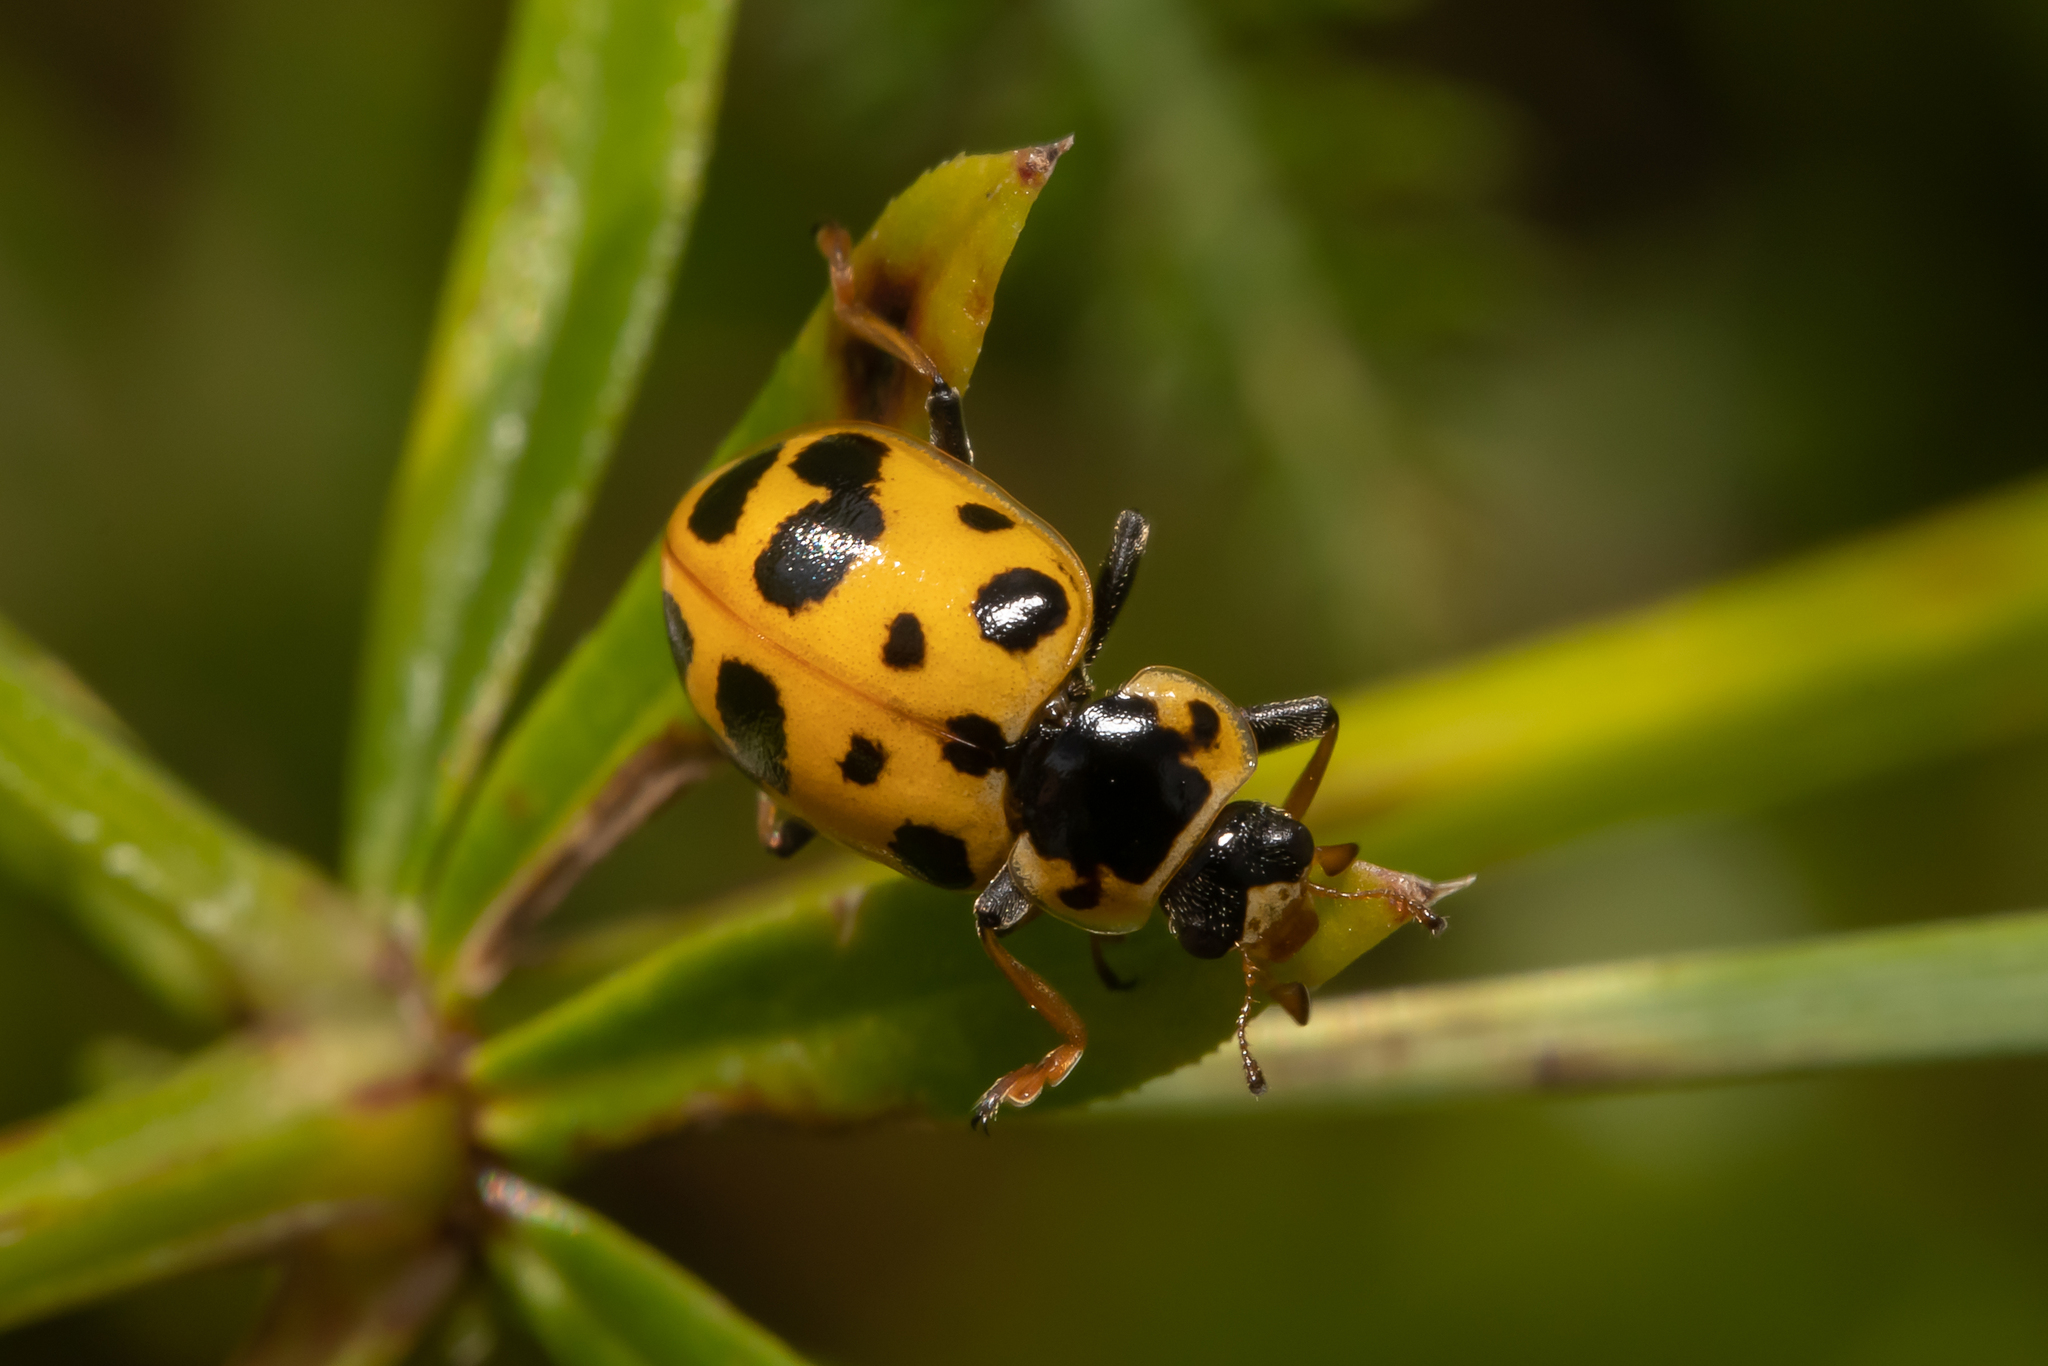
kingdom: Animalia
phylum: Arthropoda
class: Insecta
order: Coleoptera
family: Coccinellidae
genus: Hippodamia
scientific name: Hippodamia tredecimpunctata
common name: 13-spot ladybird
